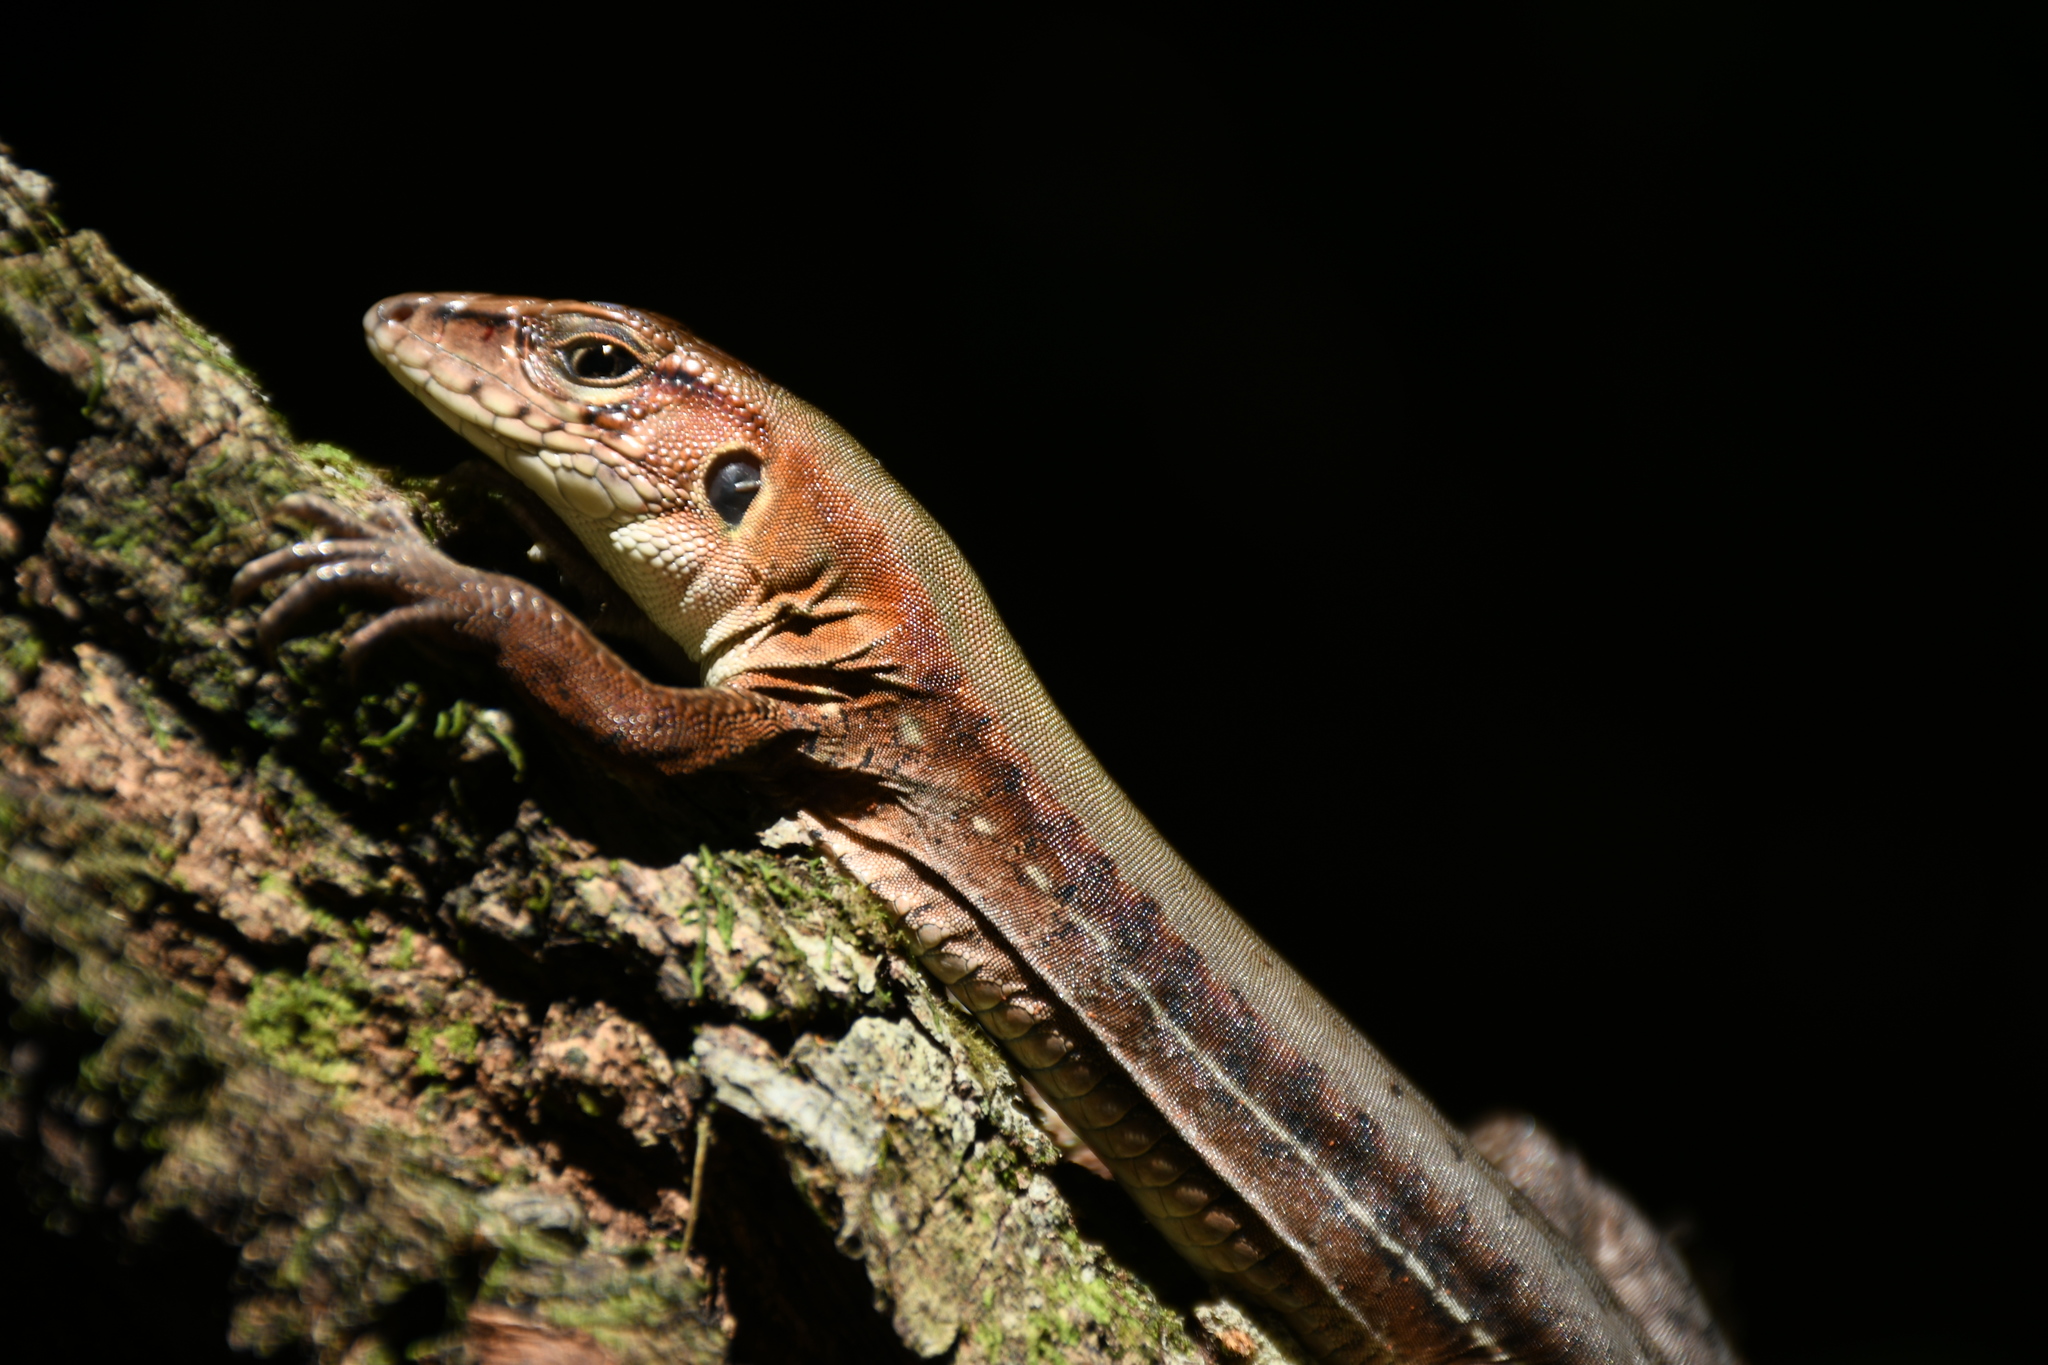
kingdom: Animalia
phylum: Chordata
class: Squamata
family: Teiidae
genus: Holcosus
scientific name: Holcosus undulatus
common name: Rainbow ameiva
